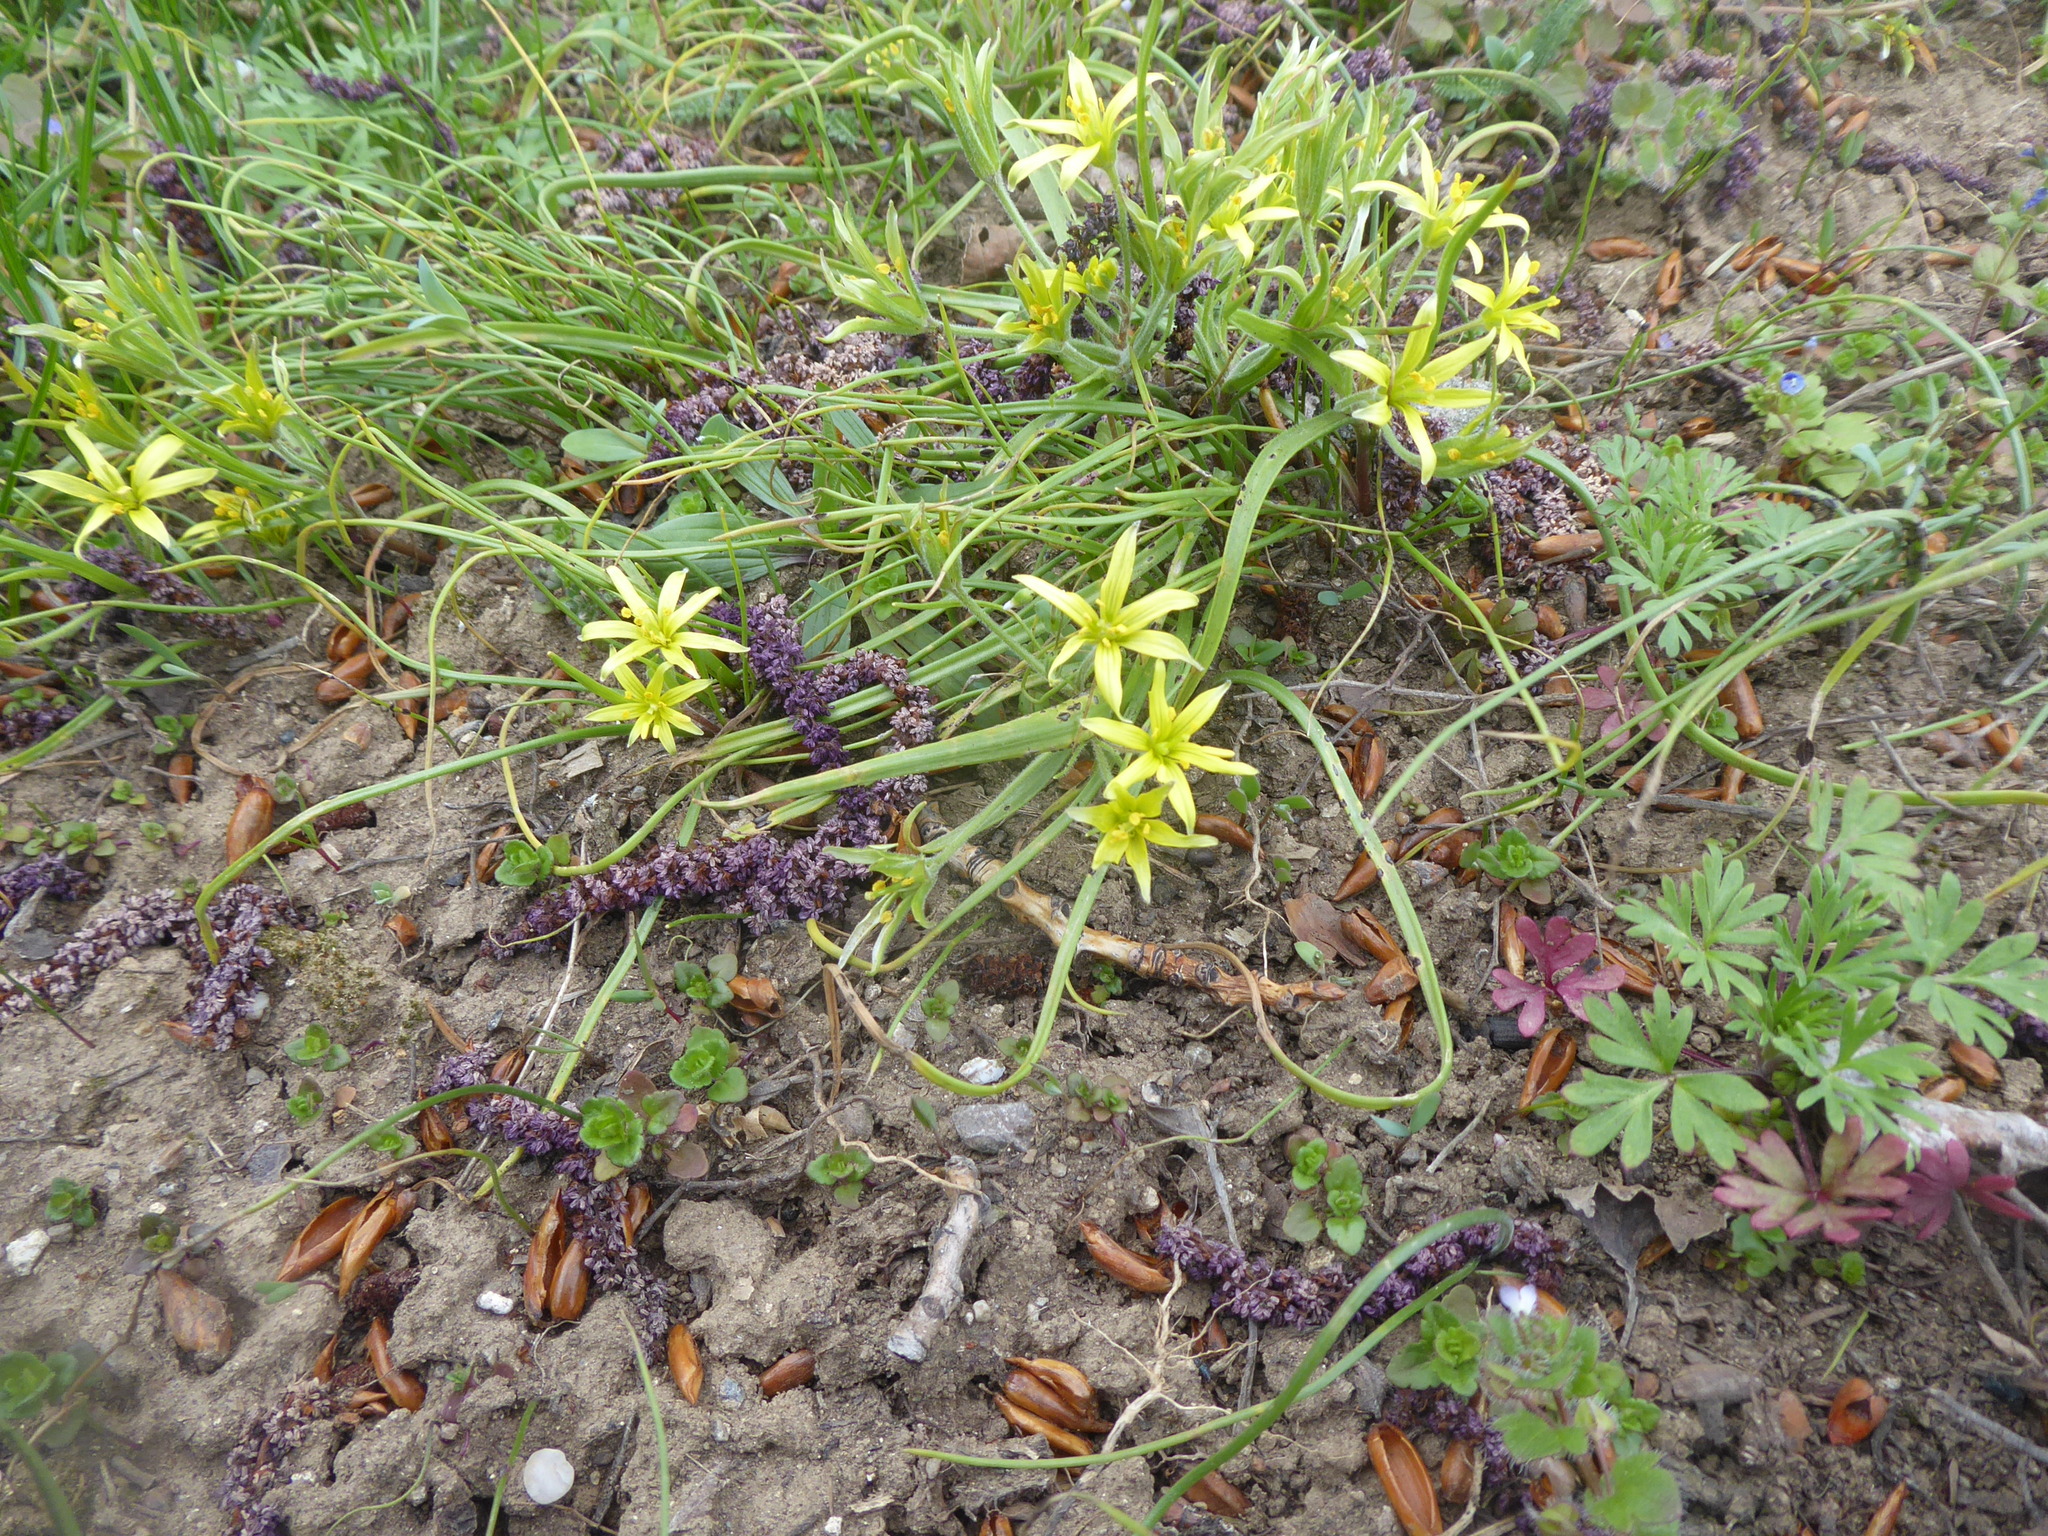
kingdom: Plantae
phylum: Tracheophyta
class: Liliopsida
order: Liliales
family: Liliaceae
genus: Gagea
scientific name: Gagea villosa
